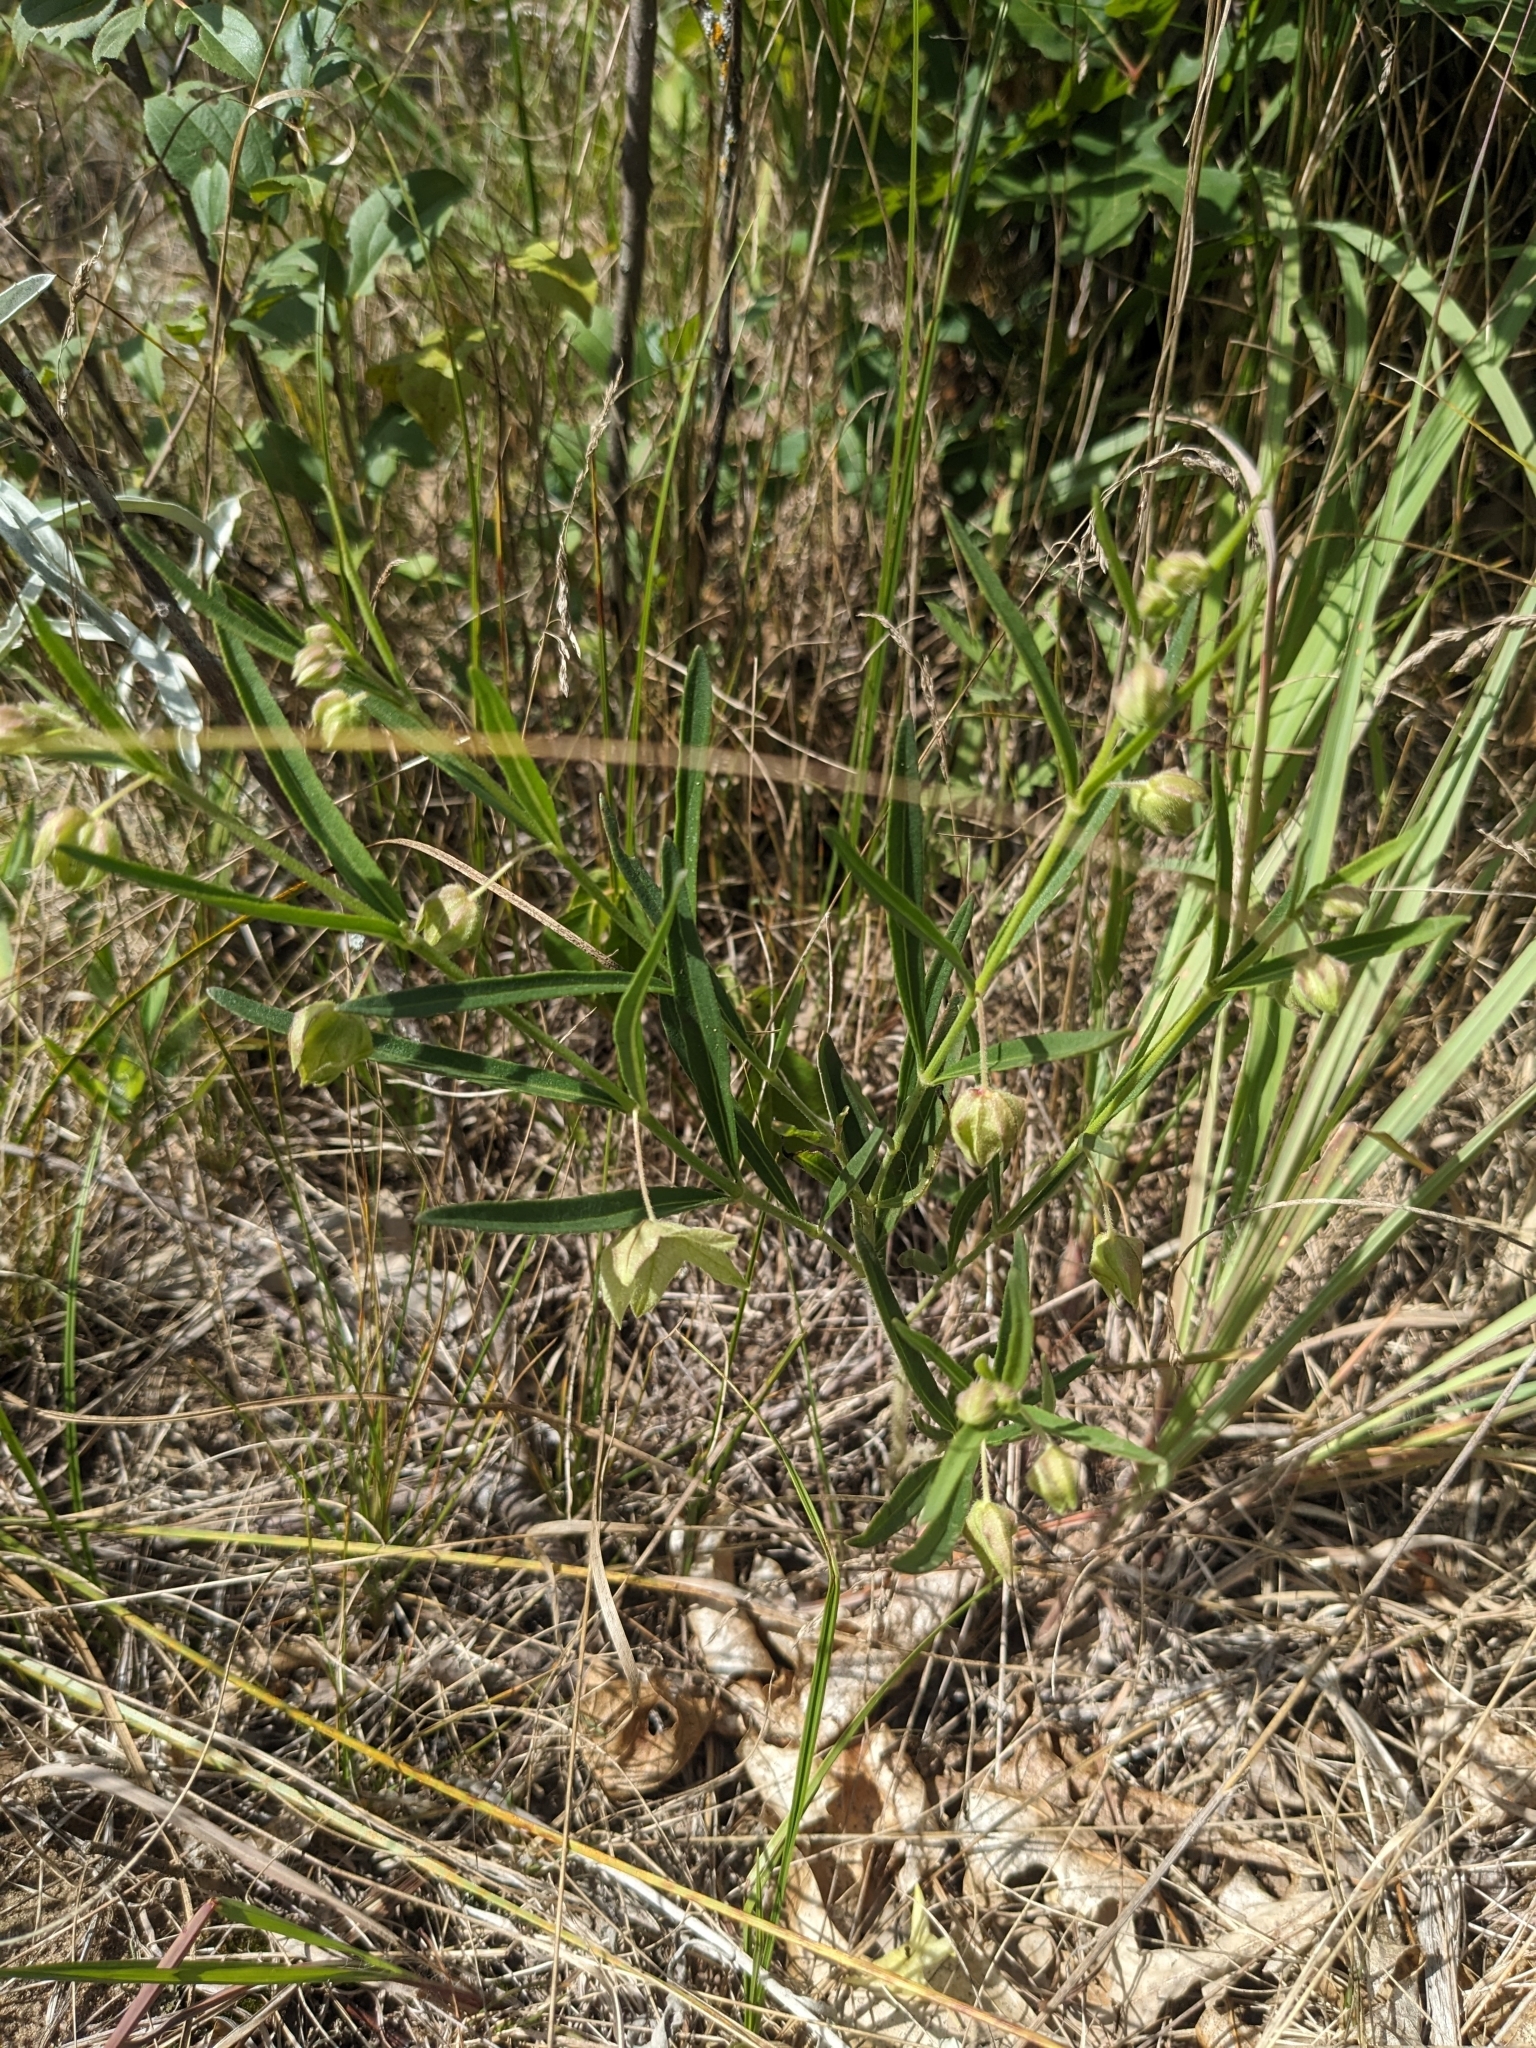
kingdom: Plantae
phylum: Tracheophyta
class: Magnoliopsida
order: Caryophyllales
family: Nyctaginaceae
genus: Mirabilis
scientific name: Mirabilis albida
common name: Hairy four-o'clock
